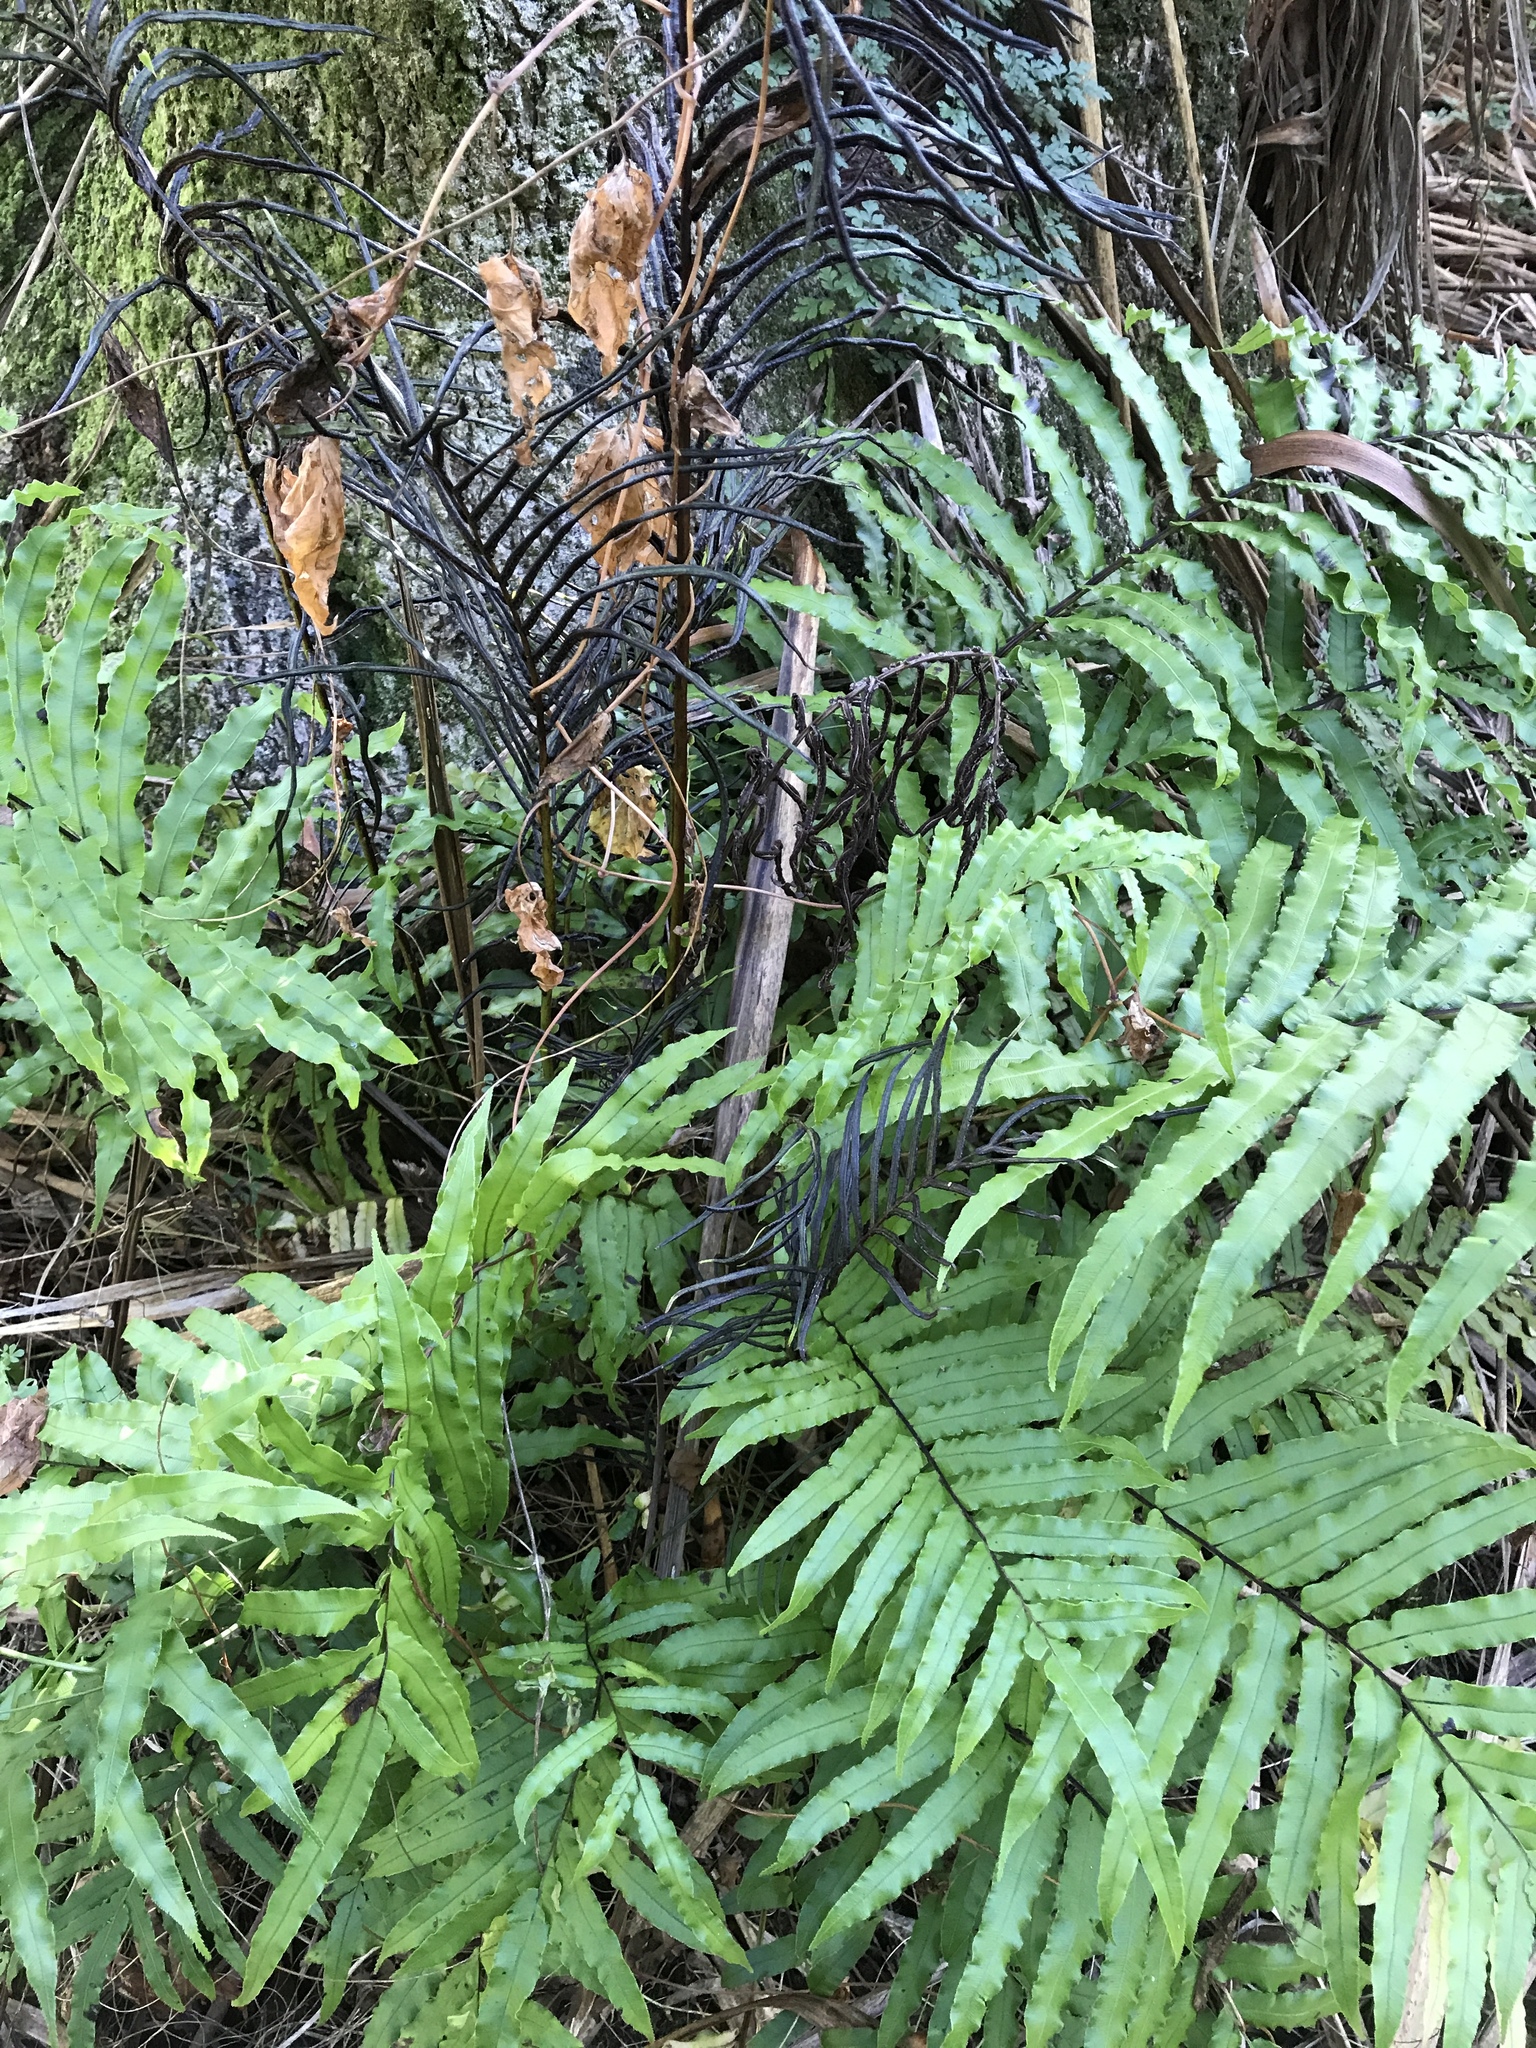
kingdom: Plantae
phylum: Tracheophyta
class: Polypodiopsida
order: Polypodiales
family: Blechnaceae
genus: Parablechnum
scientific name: Parablechnum novae-zelandiae
